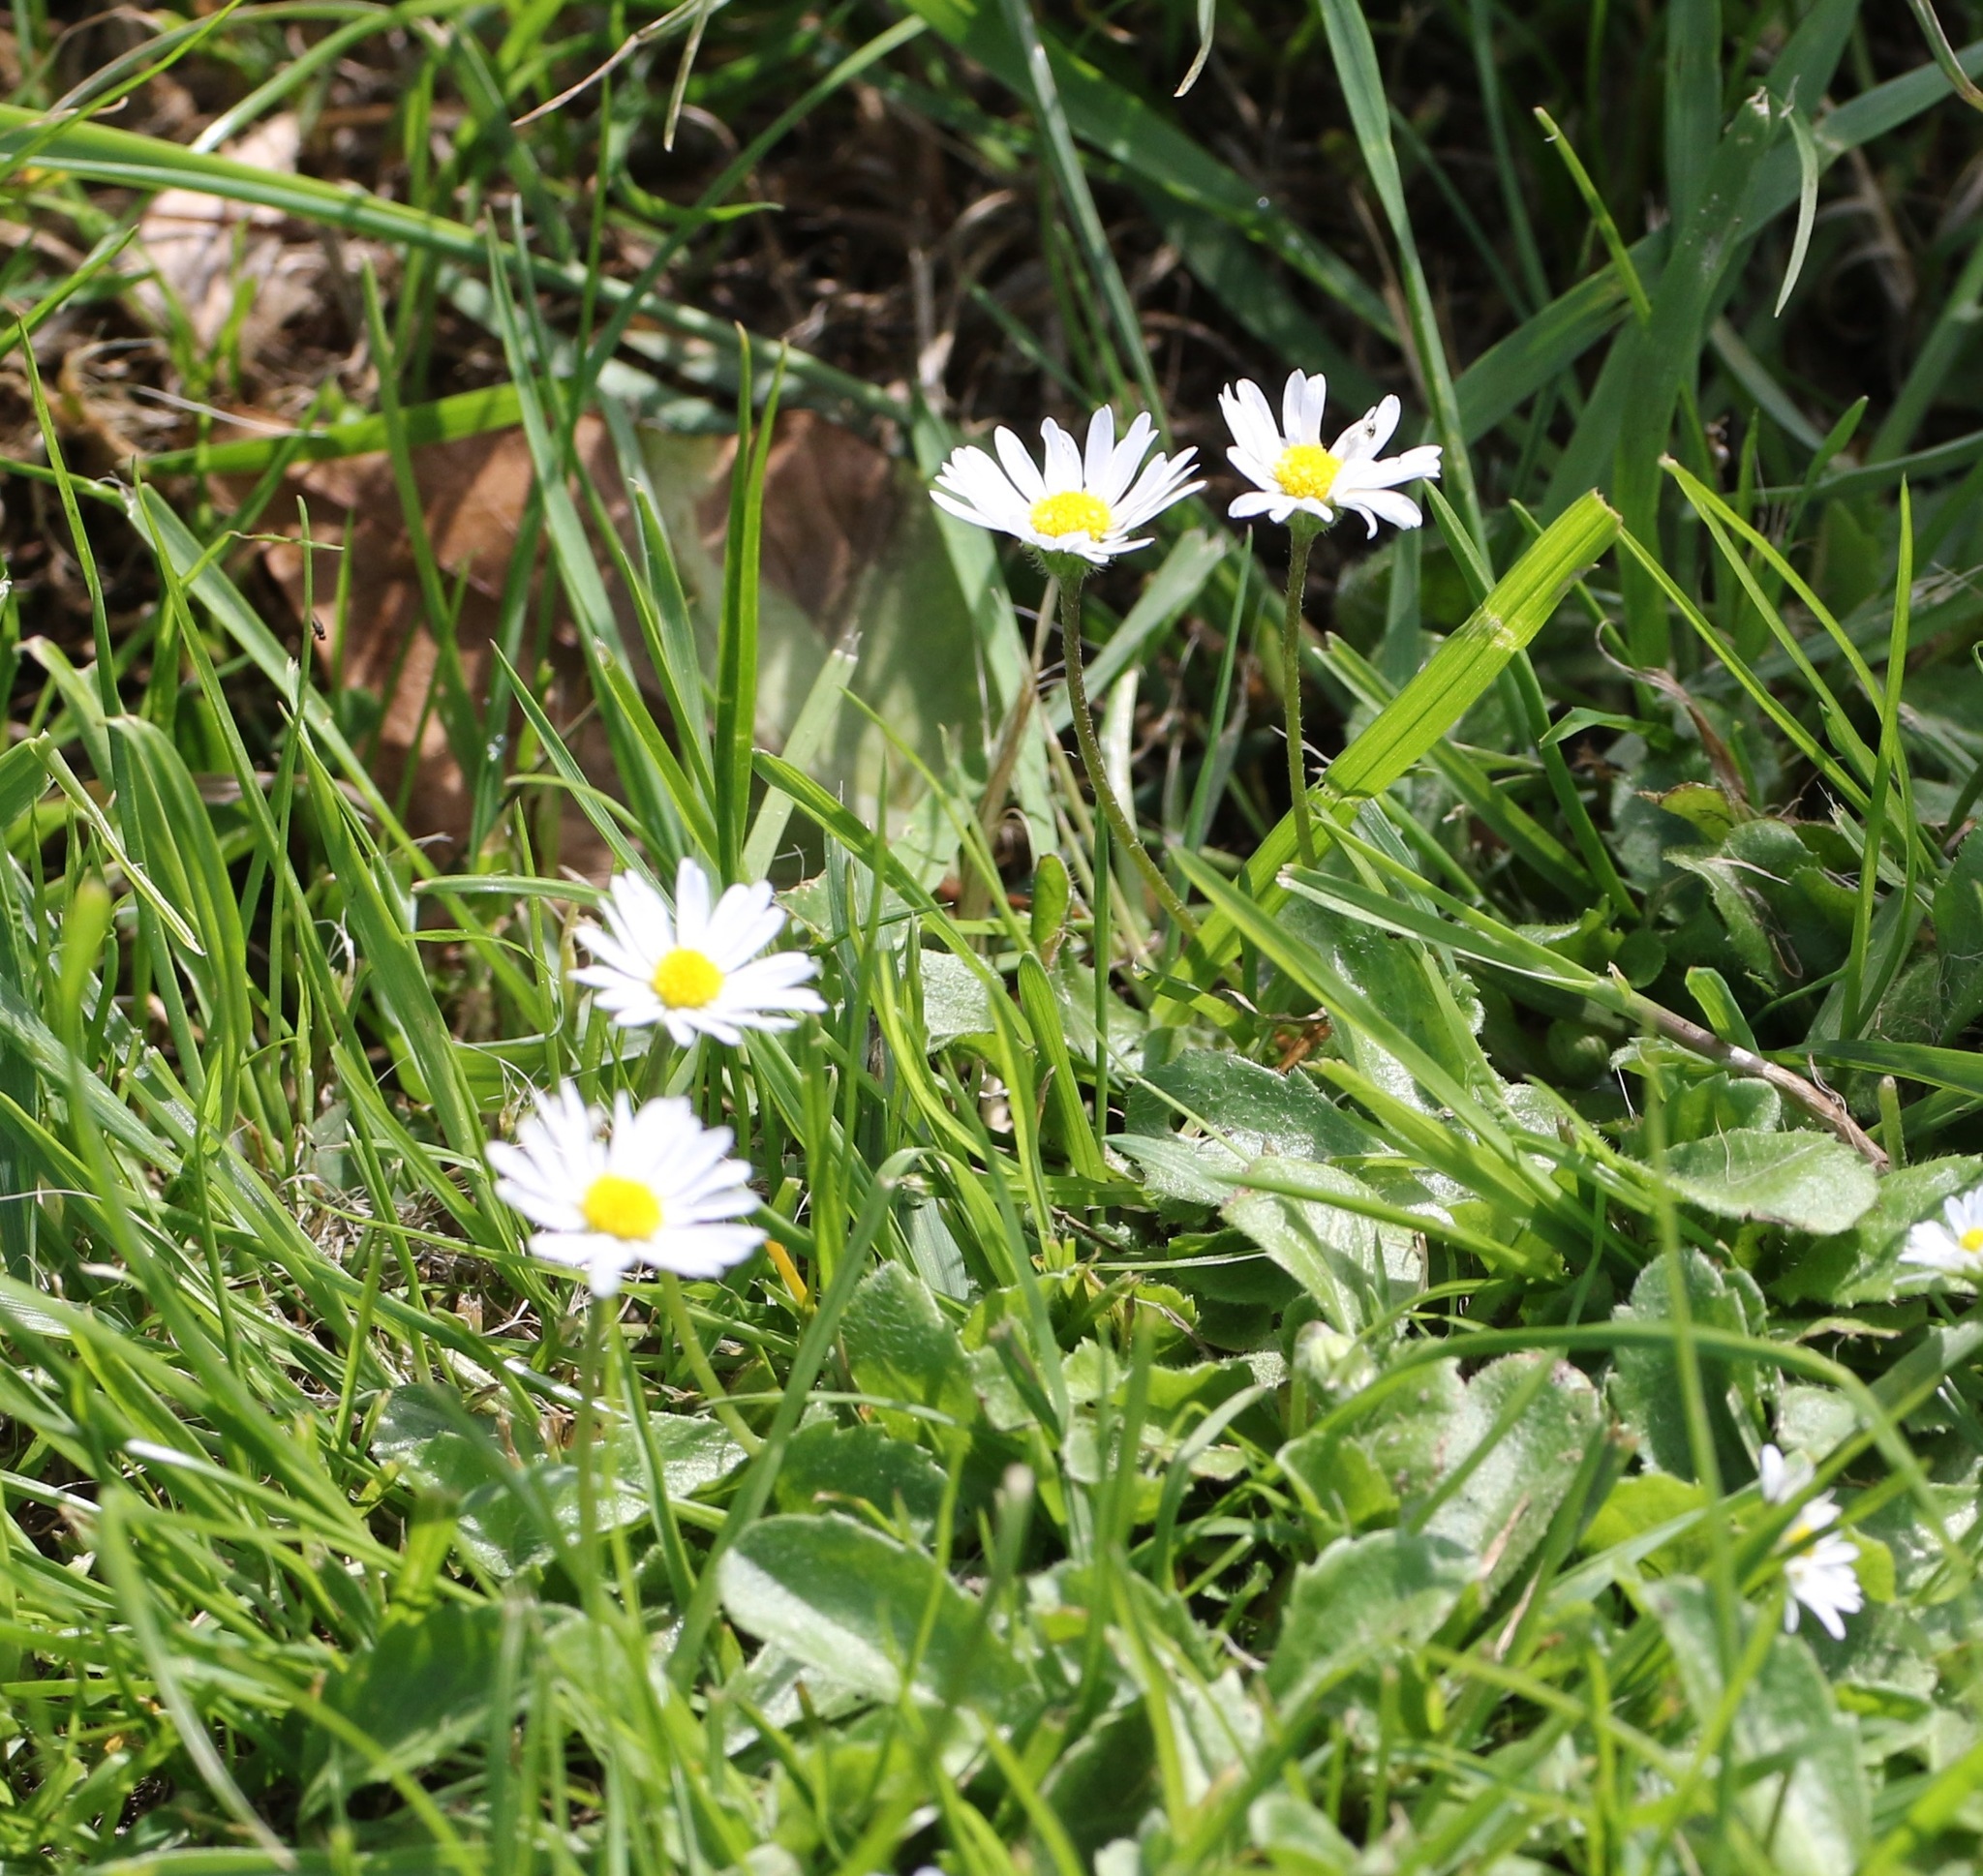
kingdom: Plantae
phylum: Tracheophyta
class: Magnoliopsida
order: Asterales
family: Asteraceae
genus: Bellis
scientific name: Bellis perennis
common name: Lawndaisy
